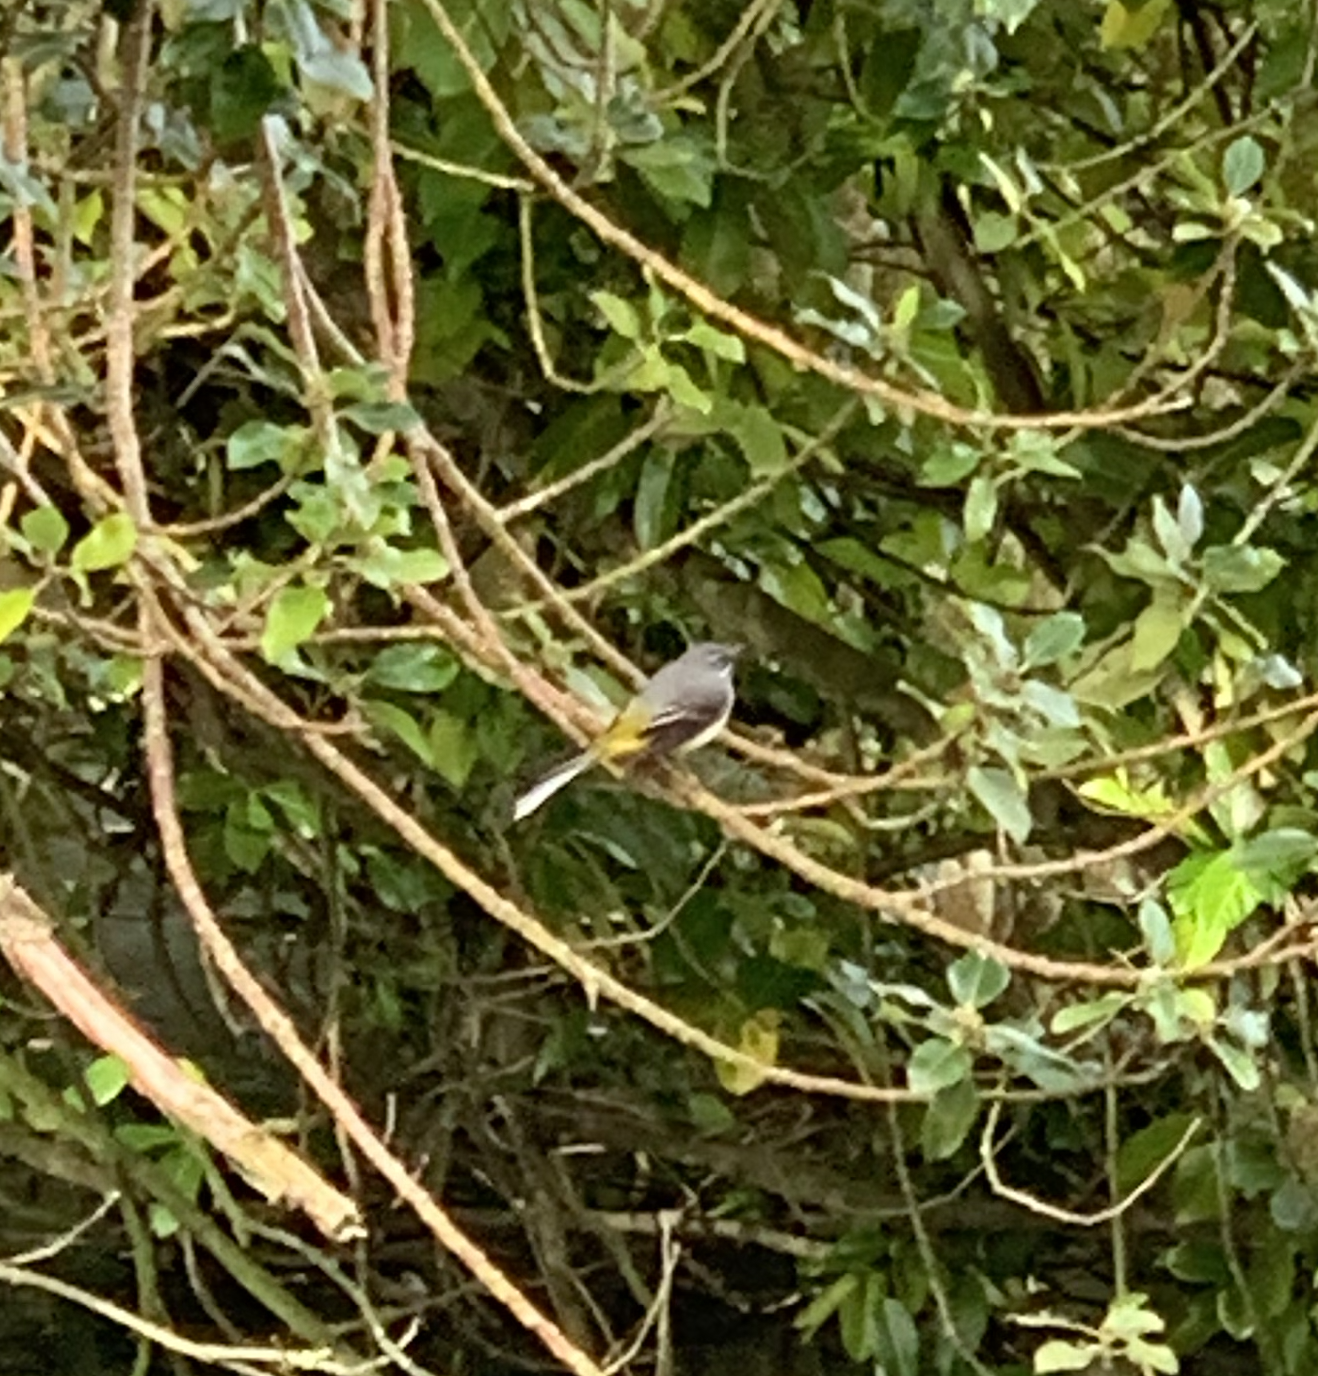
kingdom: Animalia
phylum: Chordata
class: Aves
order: Passeriformes
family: Motacillidae
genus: Motacilla
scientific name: Motacilla cinerea
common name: Grey wagtail
